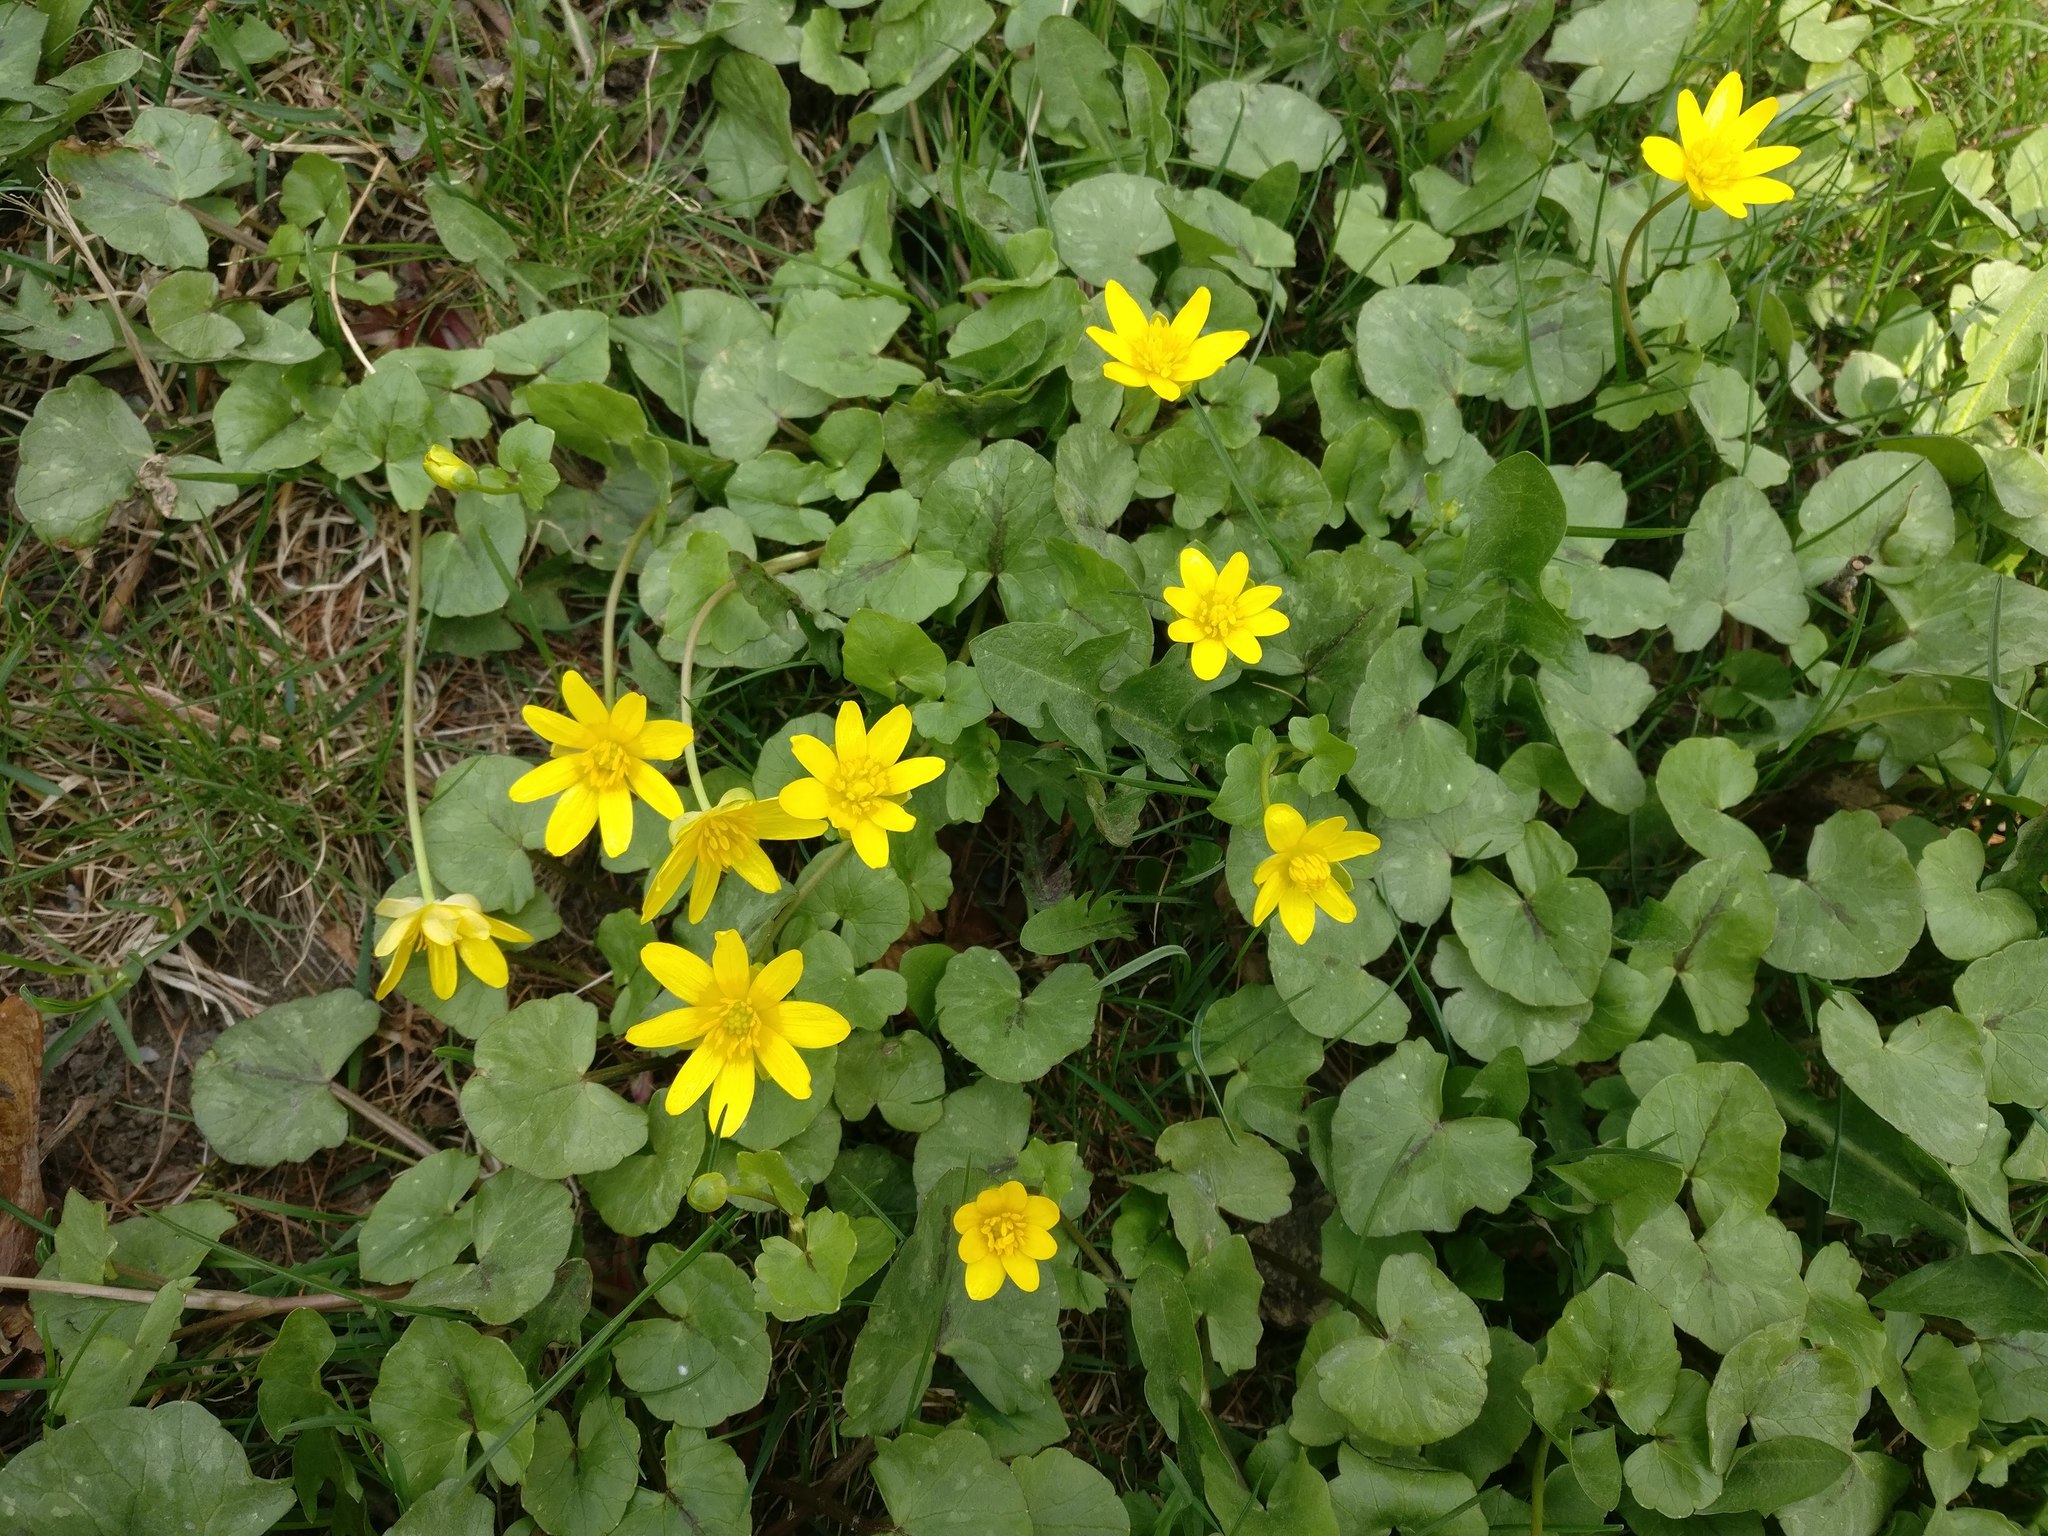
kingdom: Plantae
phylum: Tracheophyta
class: Magnoliopsida
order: Ranunculales
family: Ranunculaceae
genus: Ficaria
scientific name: Ficaria verna
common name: Lesser celandine
